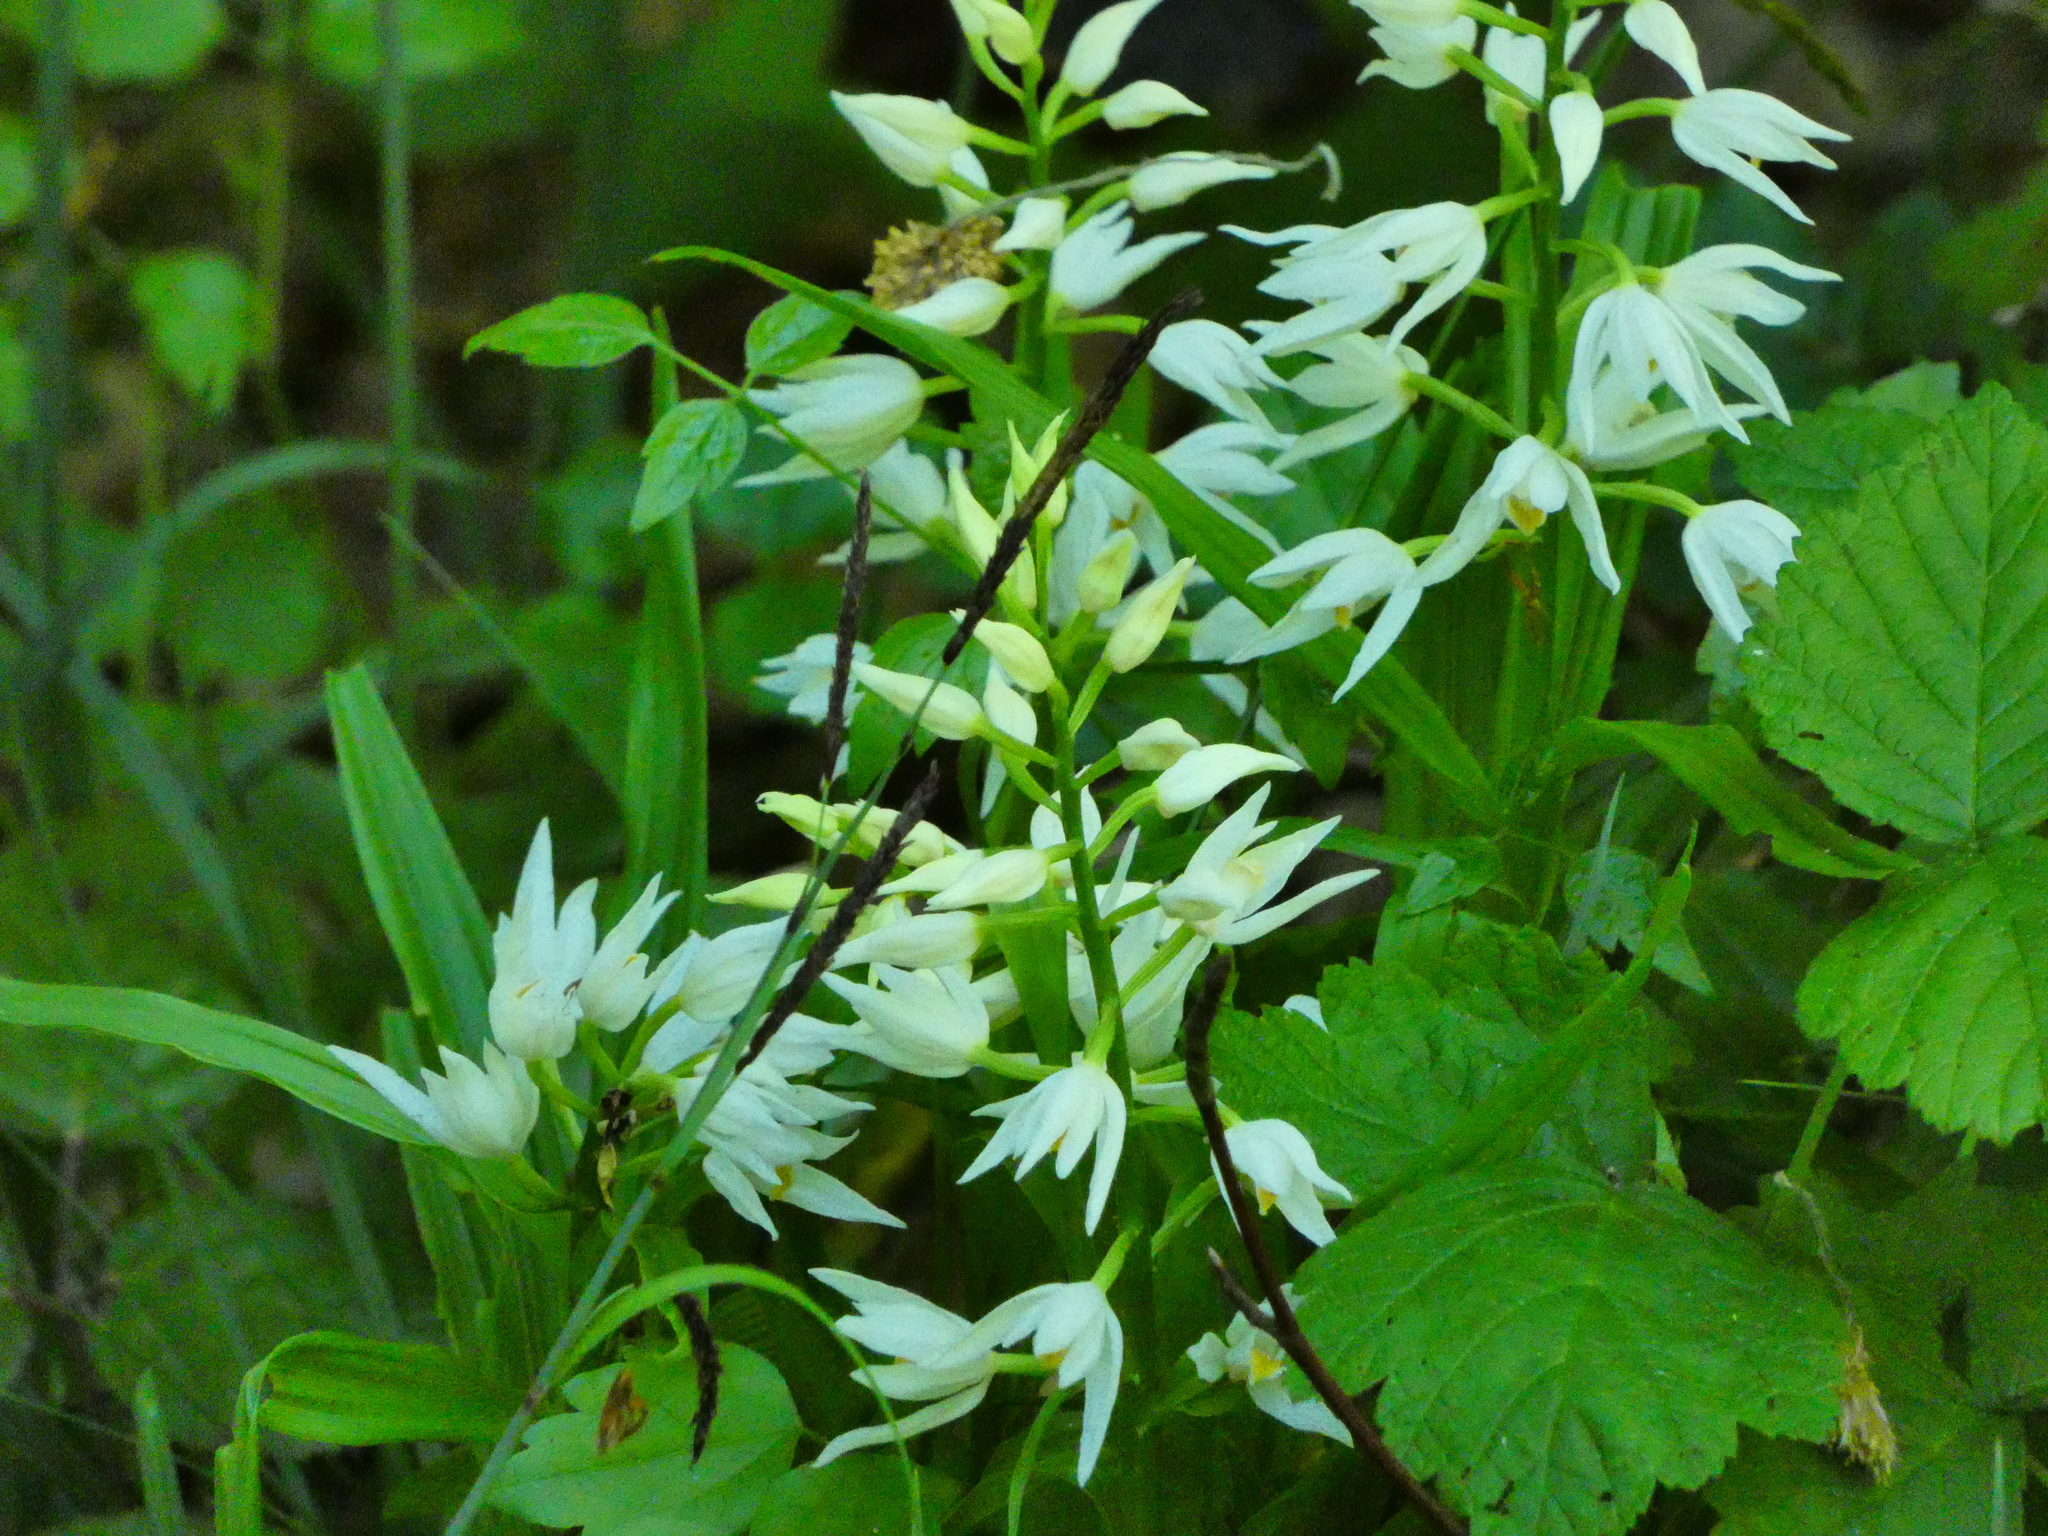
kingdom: Plantae
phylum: Tracheophyta
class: Liliopsida
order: Asparagales
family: Orchidaceae
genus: Cephalanthera
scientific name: Cephalanthera longifolia
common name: Narrow-leaved helleborine
